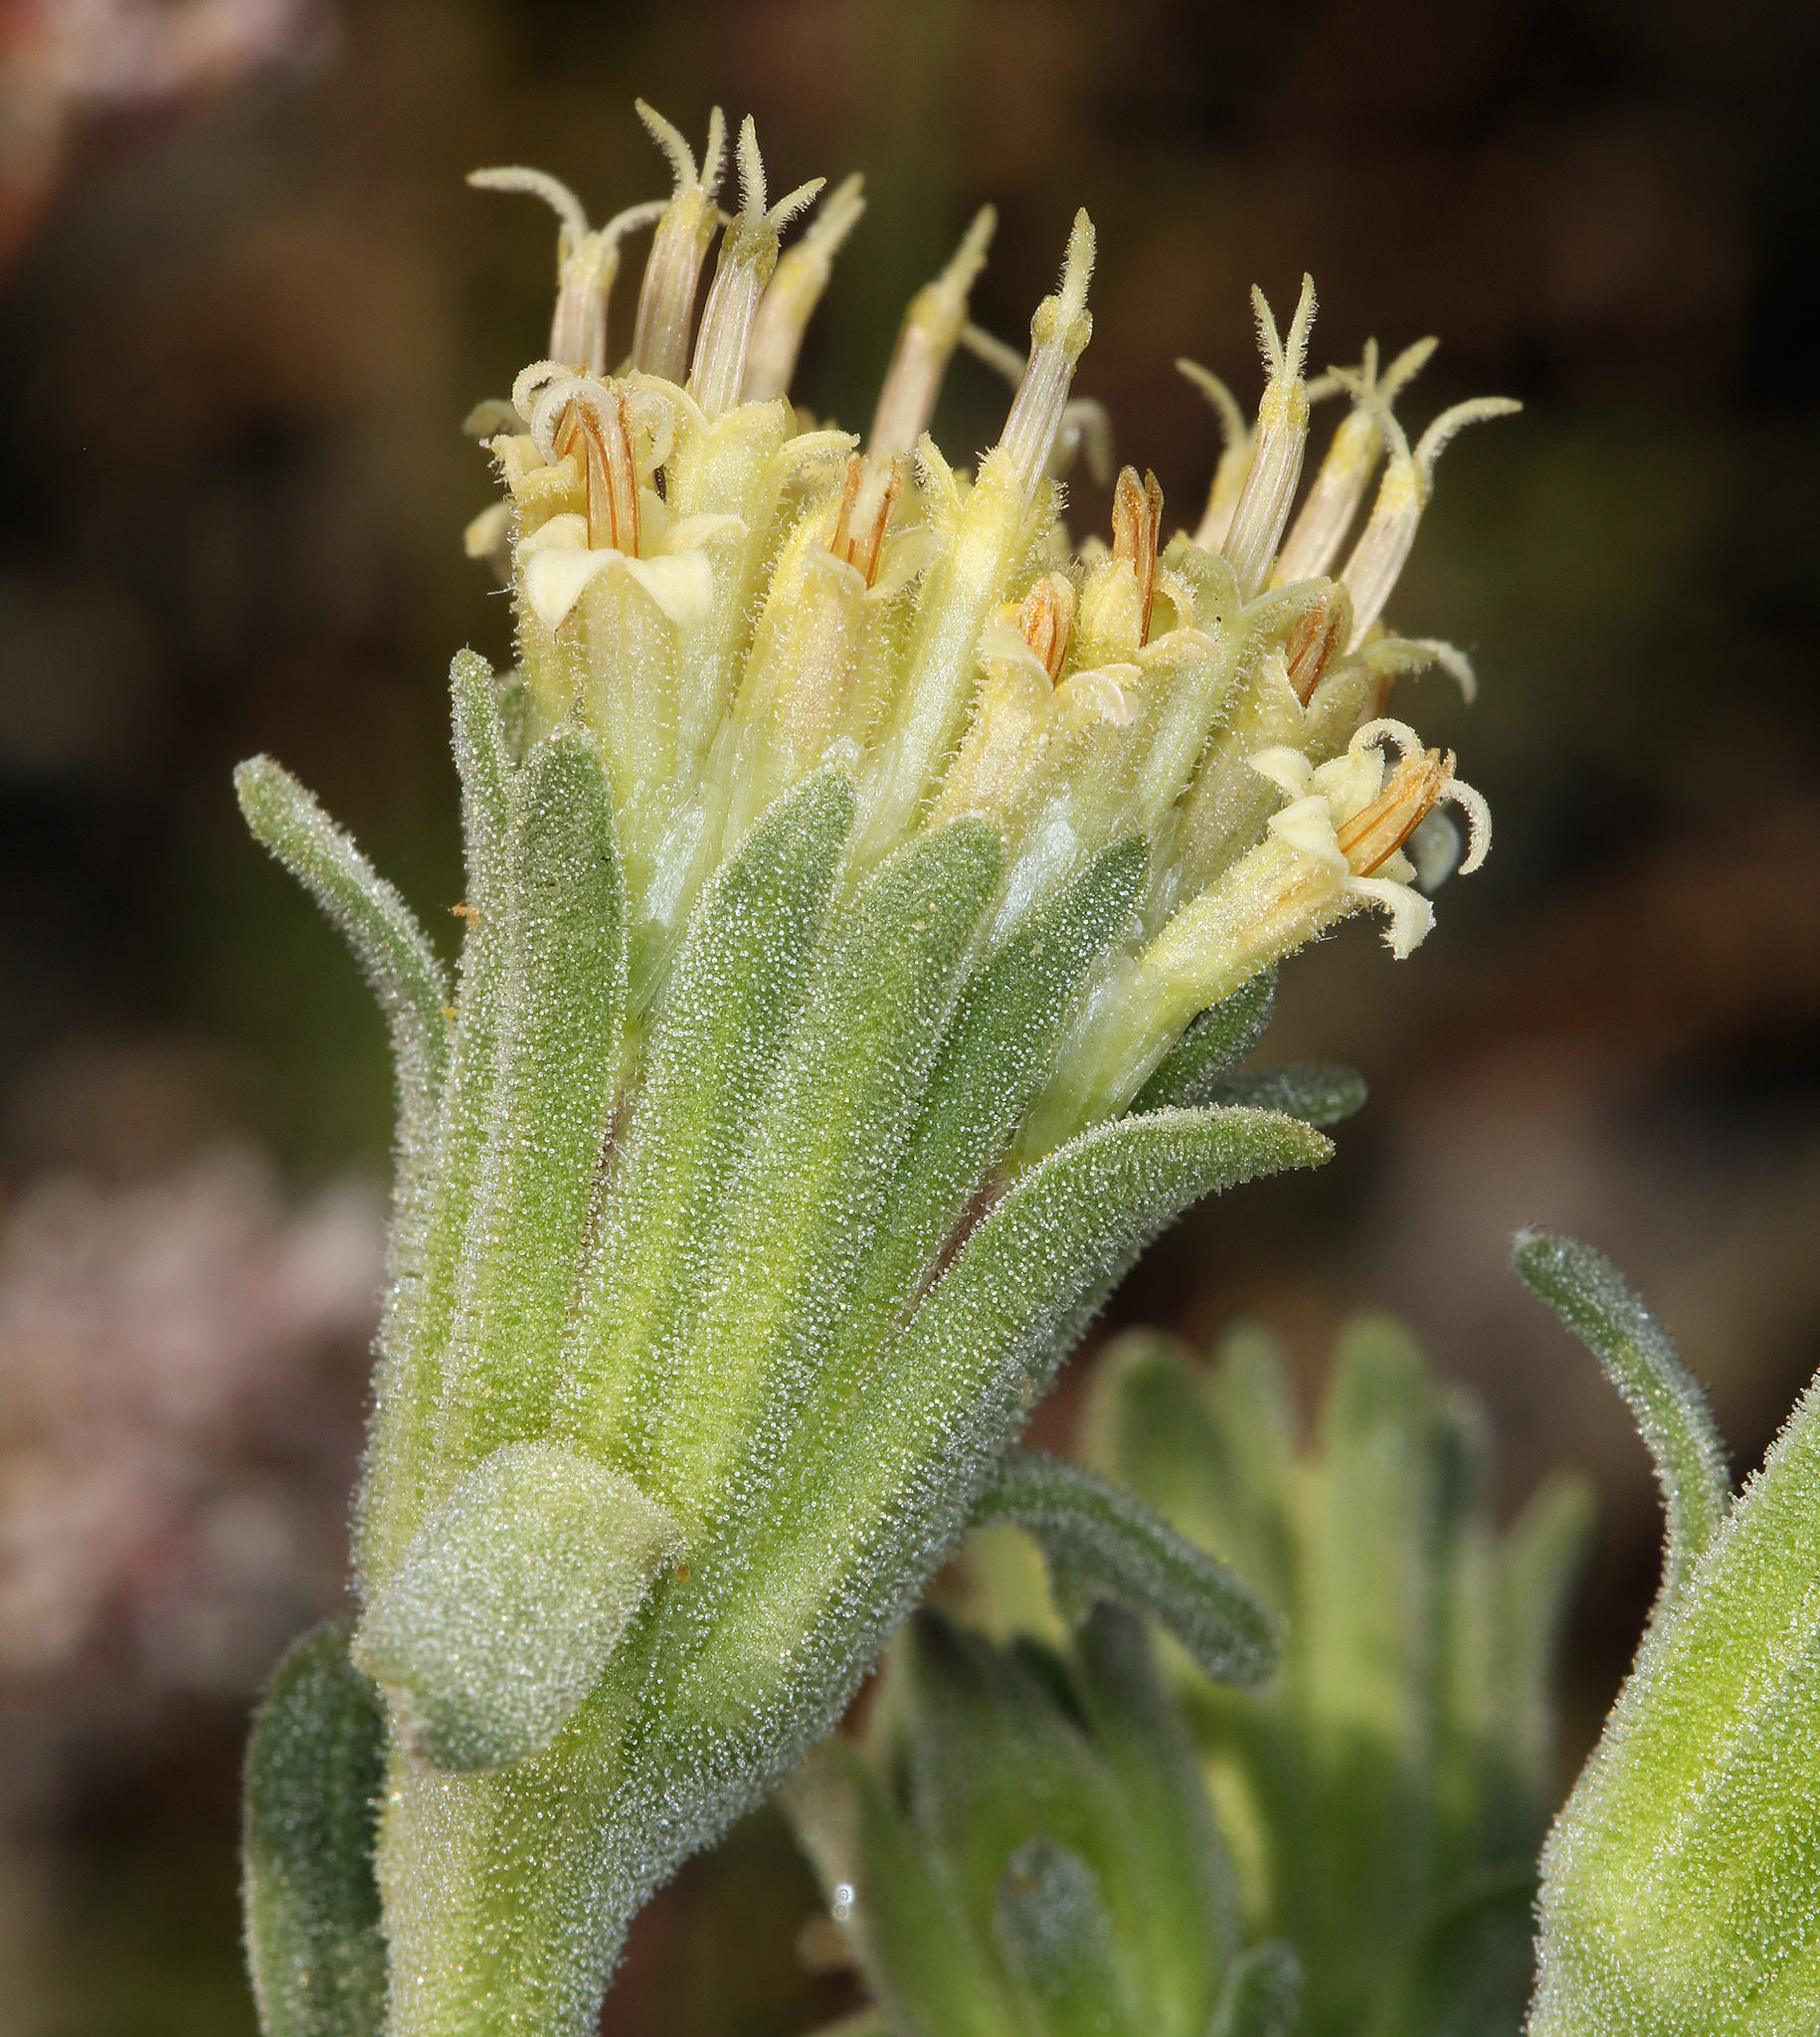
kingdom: Plantae
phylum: Tracheophyta
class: Magnoliopsida
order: Asterales
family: Asteraceae
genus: Chaenactis
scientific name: Chaenactis douglasii
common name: Hoary pincushion
